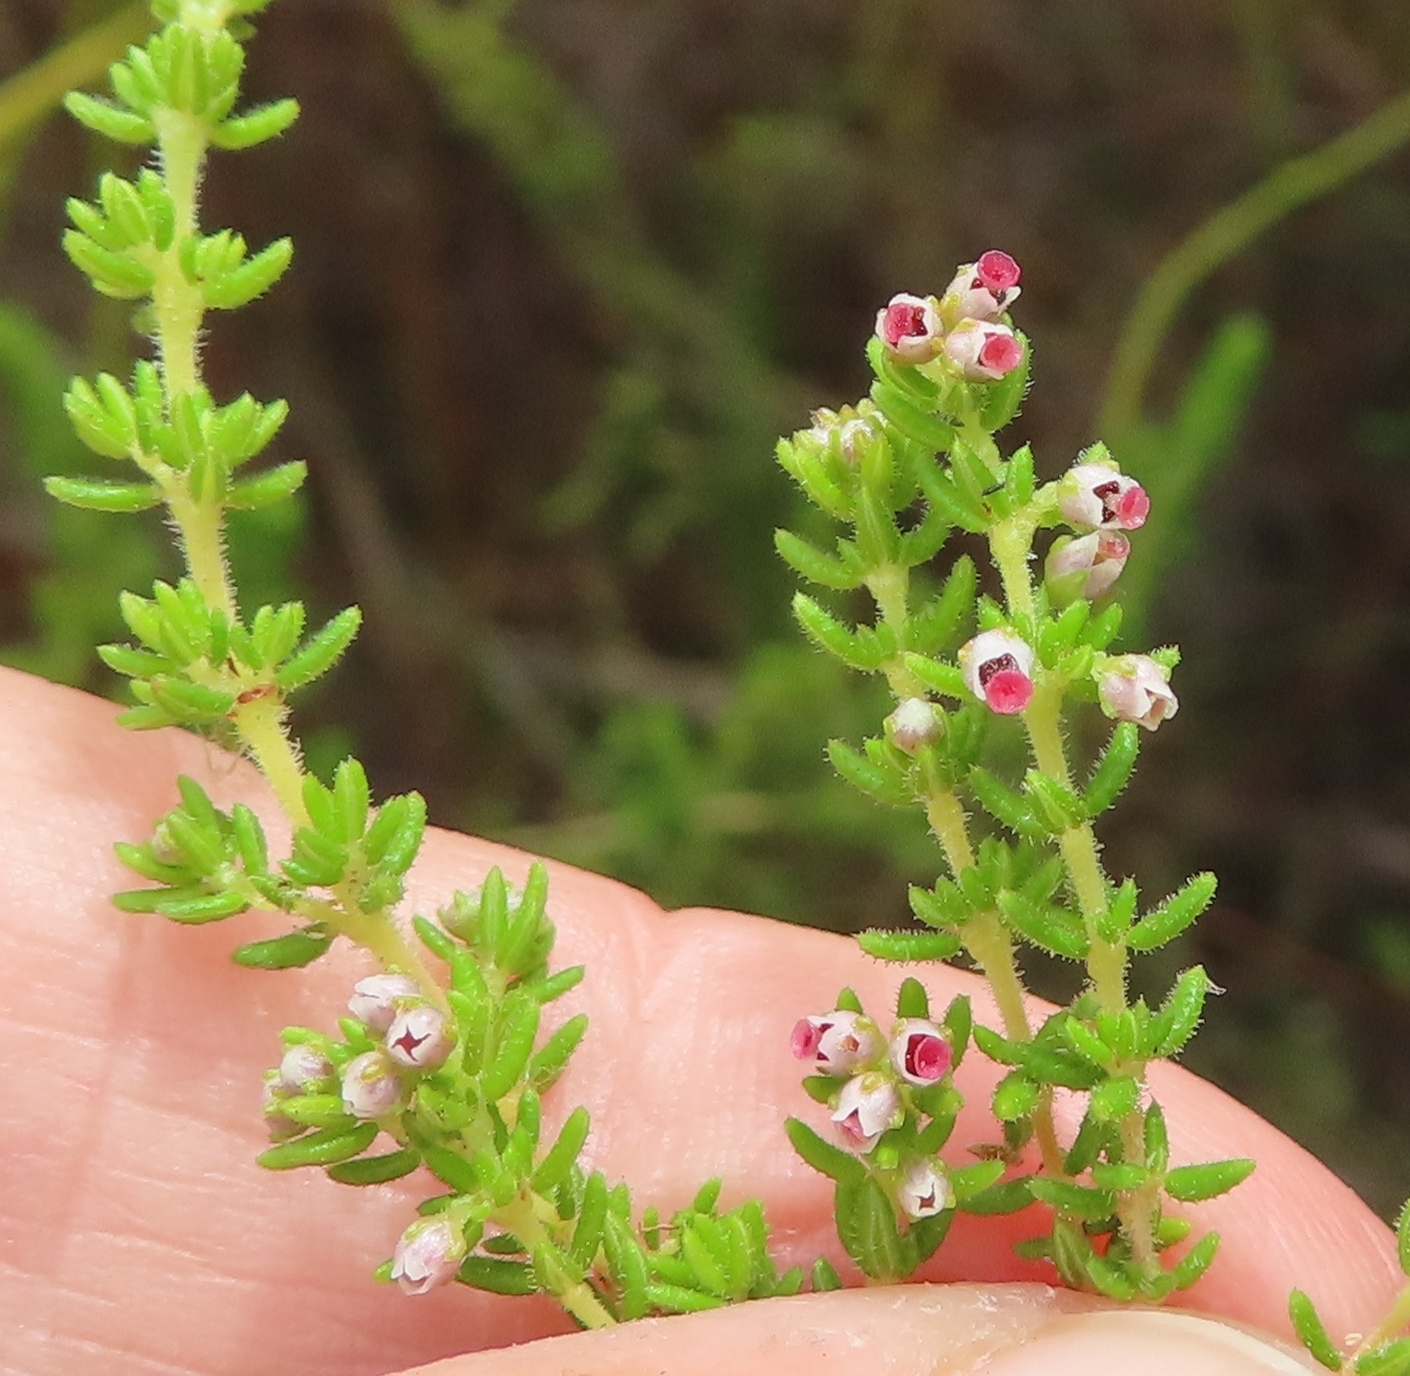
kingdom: Plantae
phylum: Tracheophyta
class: Magnoliopsida
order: Ericales
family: Ericaceae
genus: Erica
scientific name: Erica hispidula
